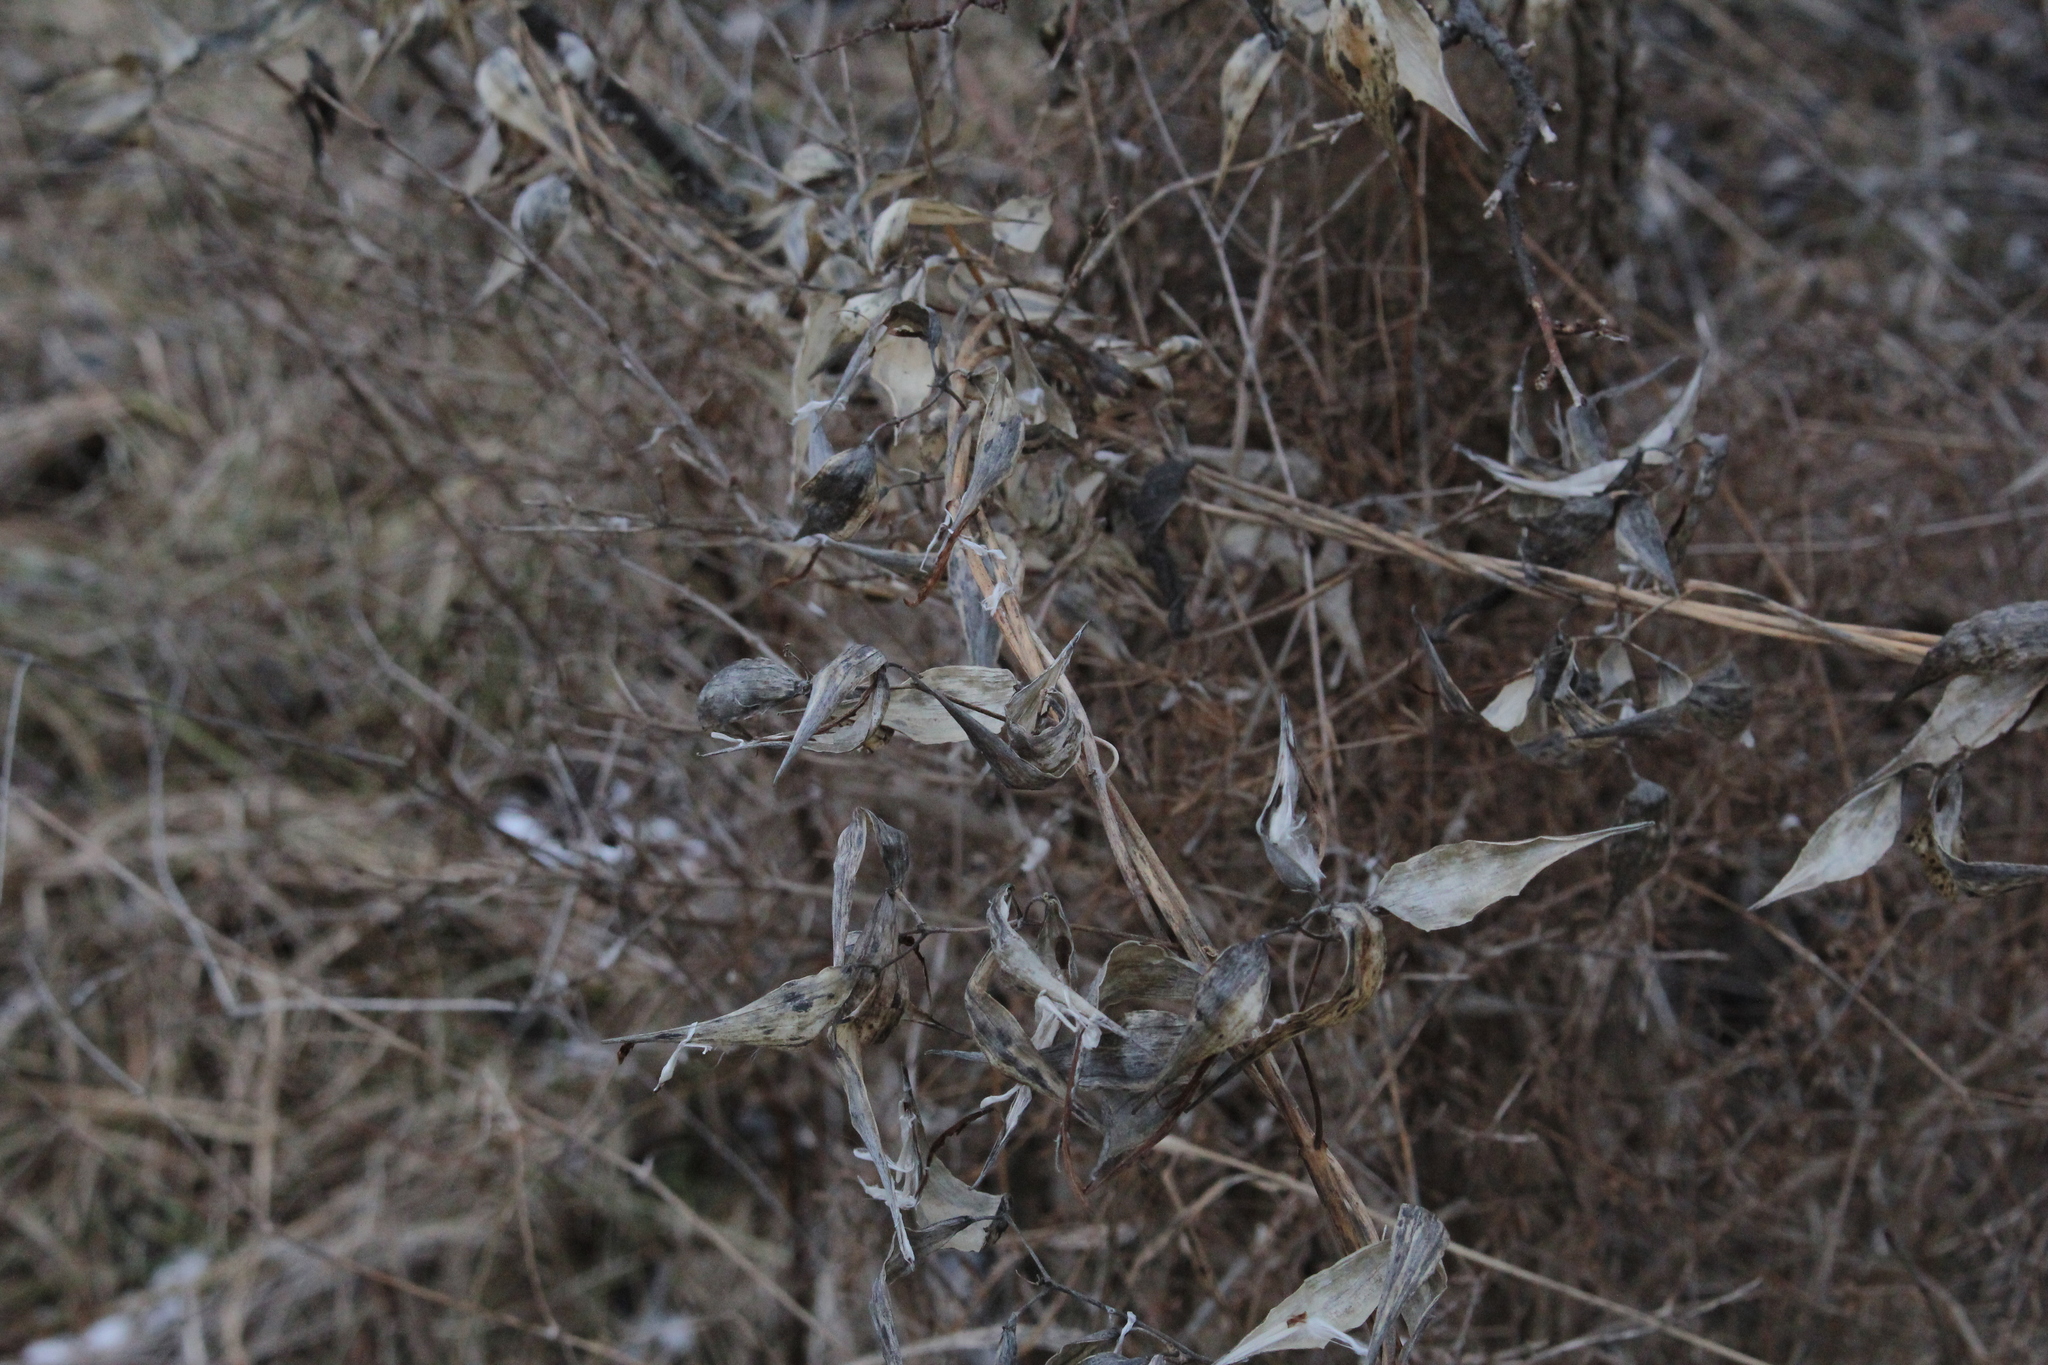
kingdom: Plantae
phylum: Tracheophyta
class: Magnoliopsida
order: Gentianales
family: Apocynaceae
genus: Vincetoxicum
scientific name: Vincetoxicum
